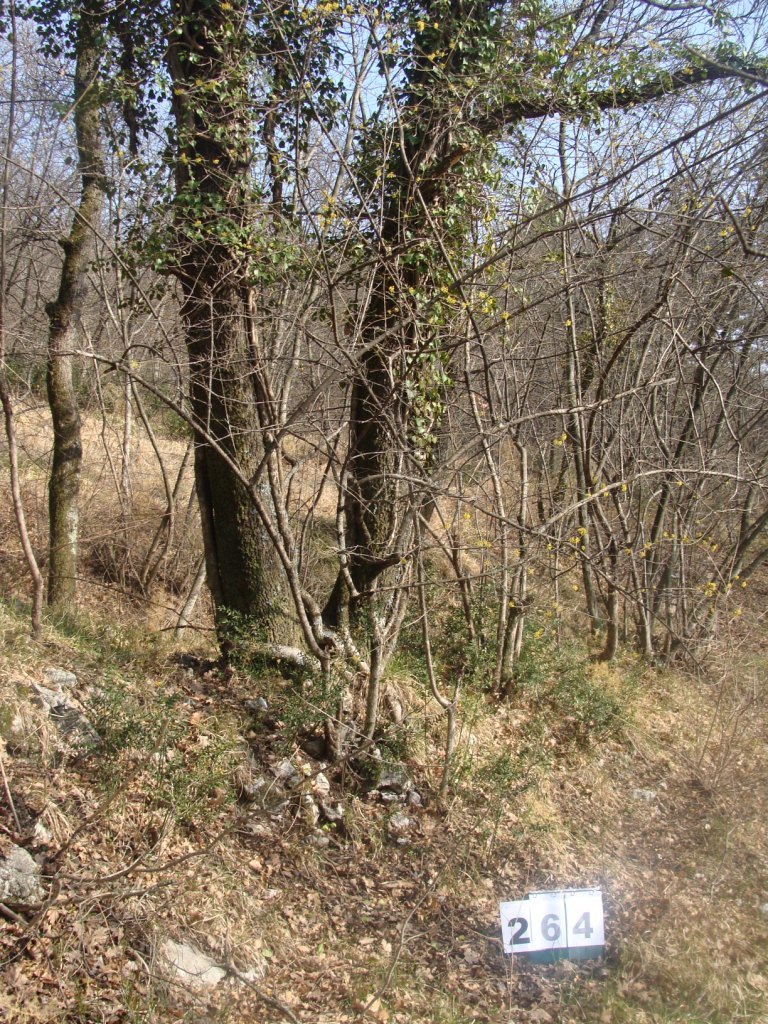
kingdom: Plantae
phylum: Tracheophyta
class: Magnoliopsida
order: Cornales
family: Cornaceae
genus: Cornus
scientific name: Cornus mas
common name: Cornelian-cherry
